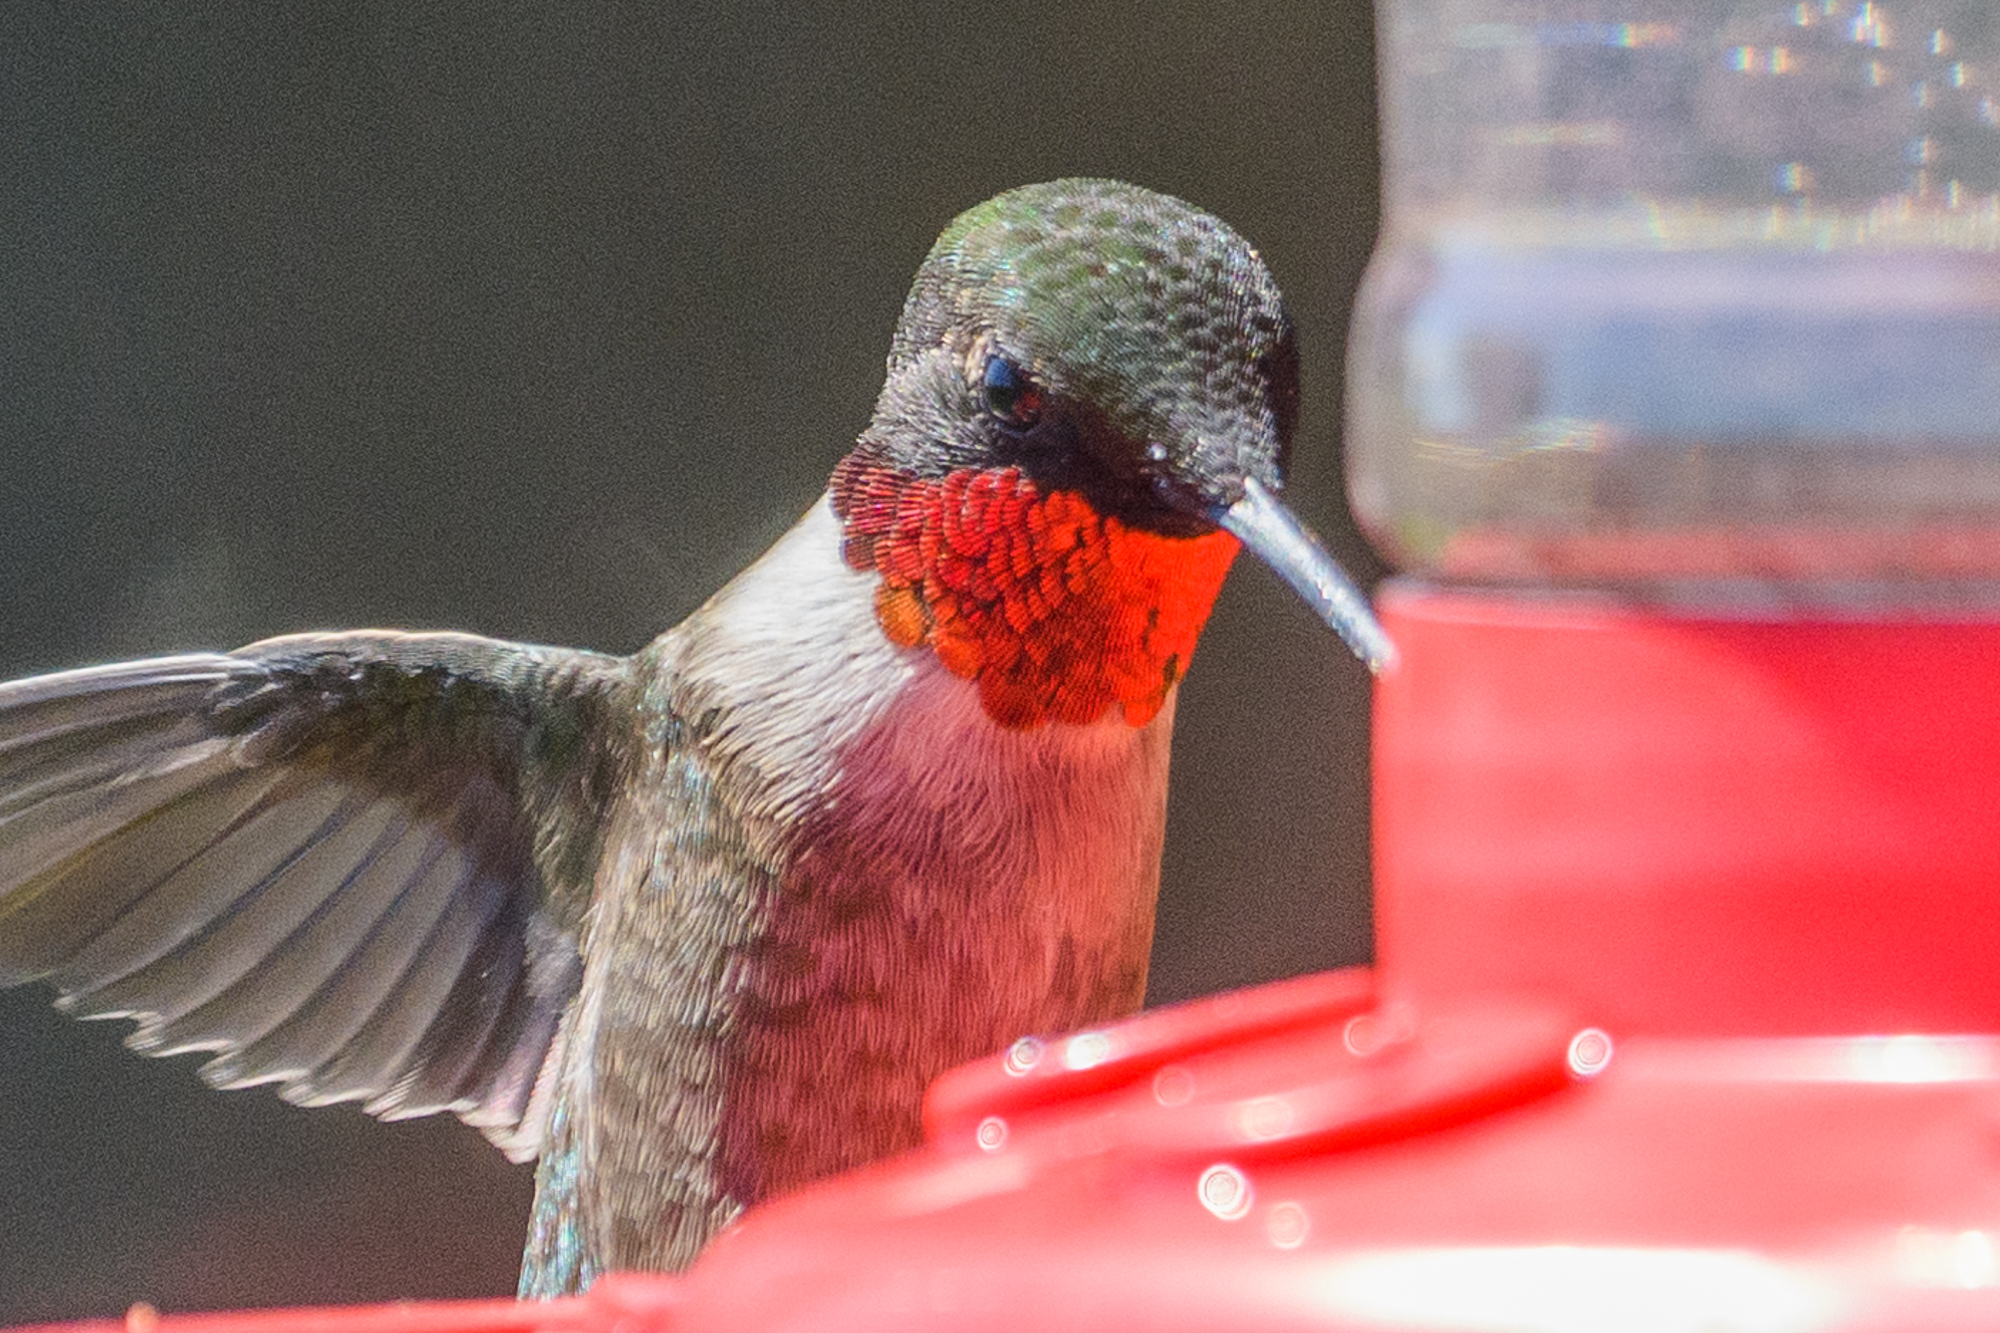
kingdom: Animalia
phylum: Chordata
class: Aves
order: Apodiformes
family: Trochilidae
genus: Archilochus
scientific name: Archilochus colubris
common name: Ruby-throated hummingbird
